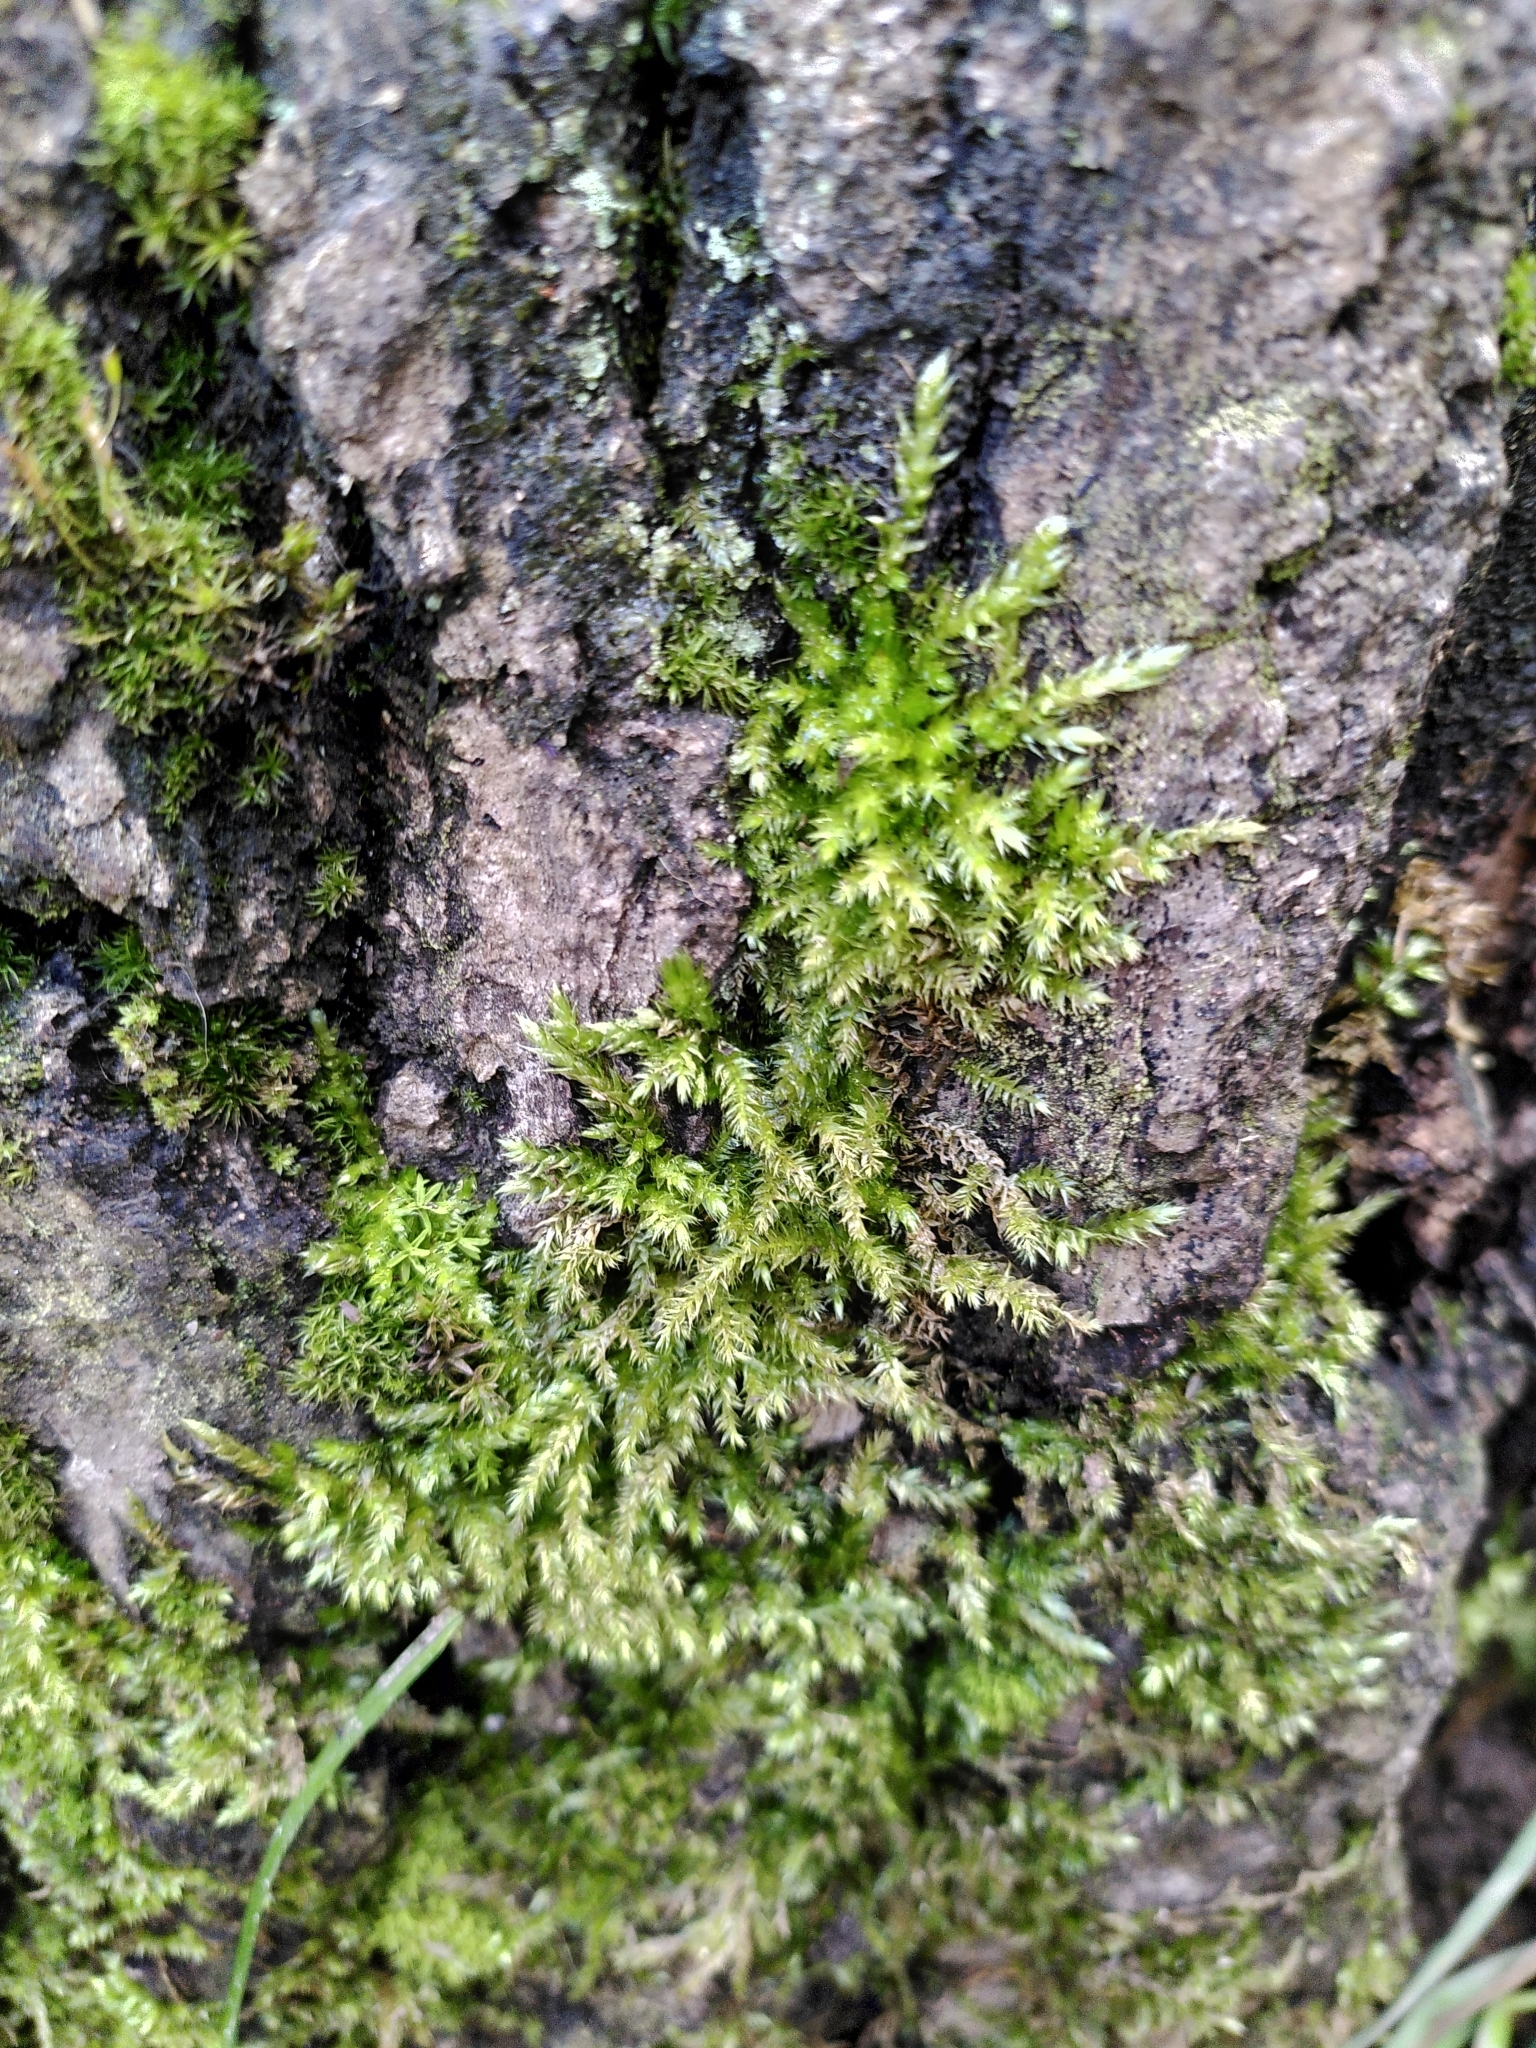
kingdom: Plantae
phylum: Bryophyta
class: Bryopsida
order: Hypnales
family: Brachytheciaceae
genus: Brachythecium
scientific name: Brachythecium rutabulum
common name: Rough-stalked feather-moss
